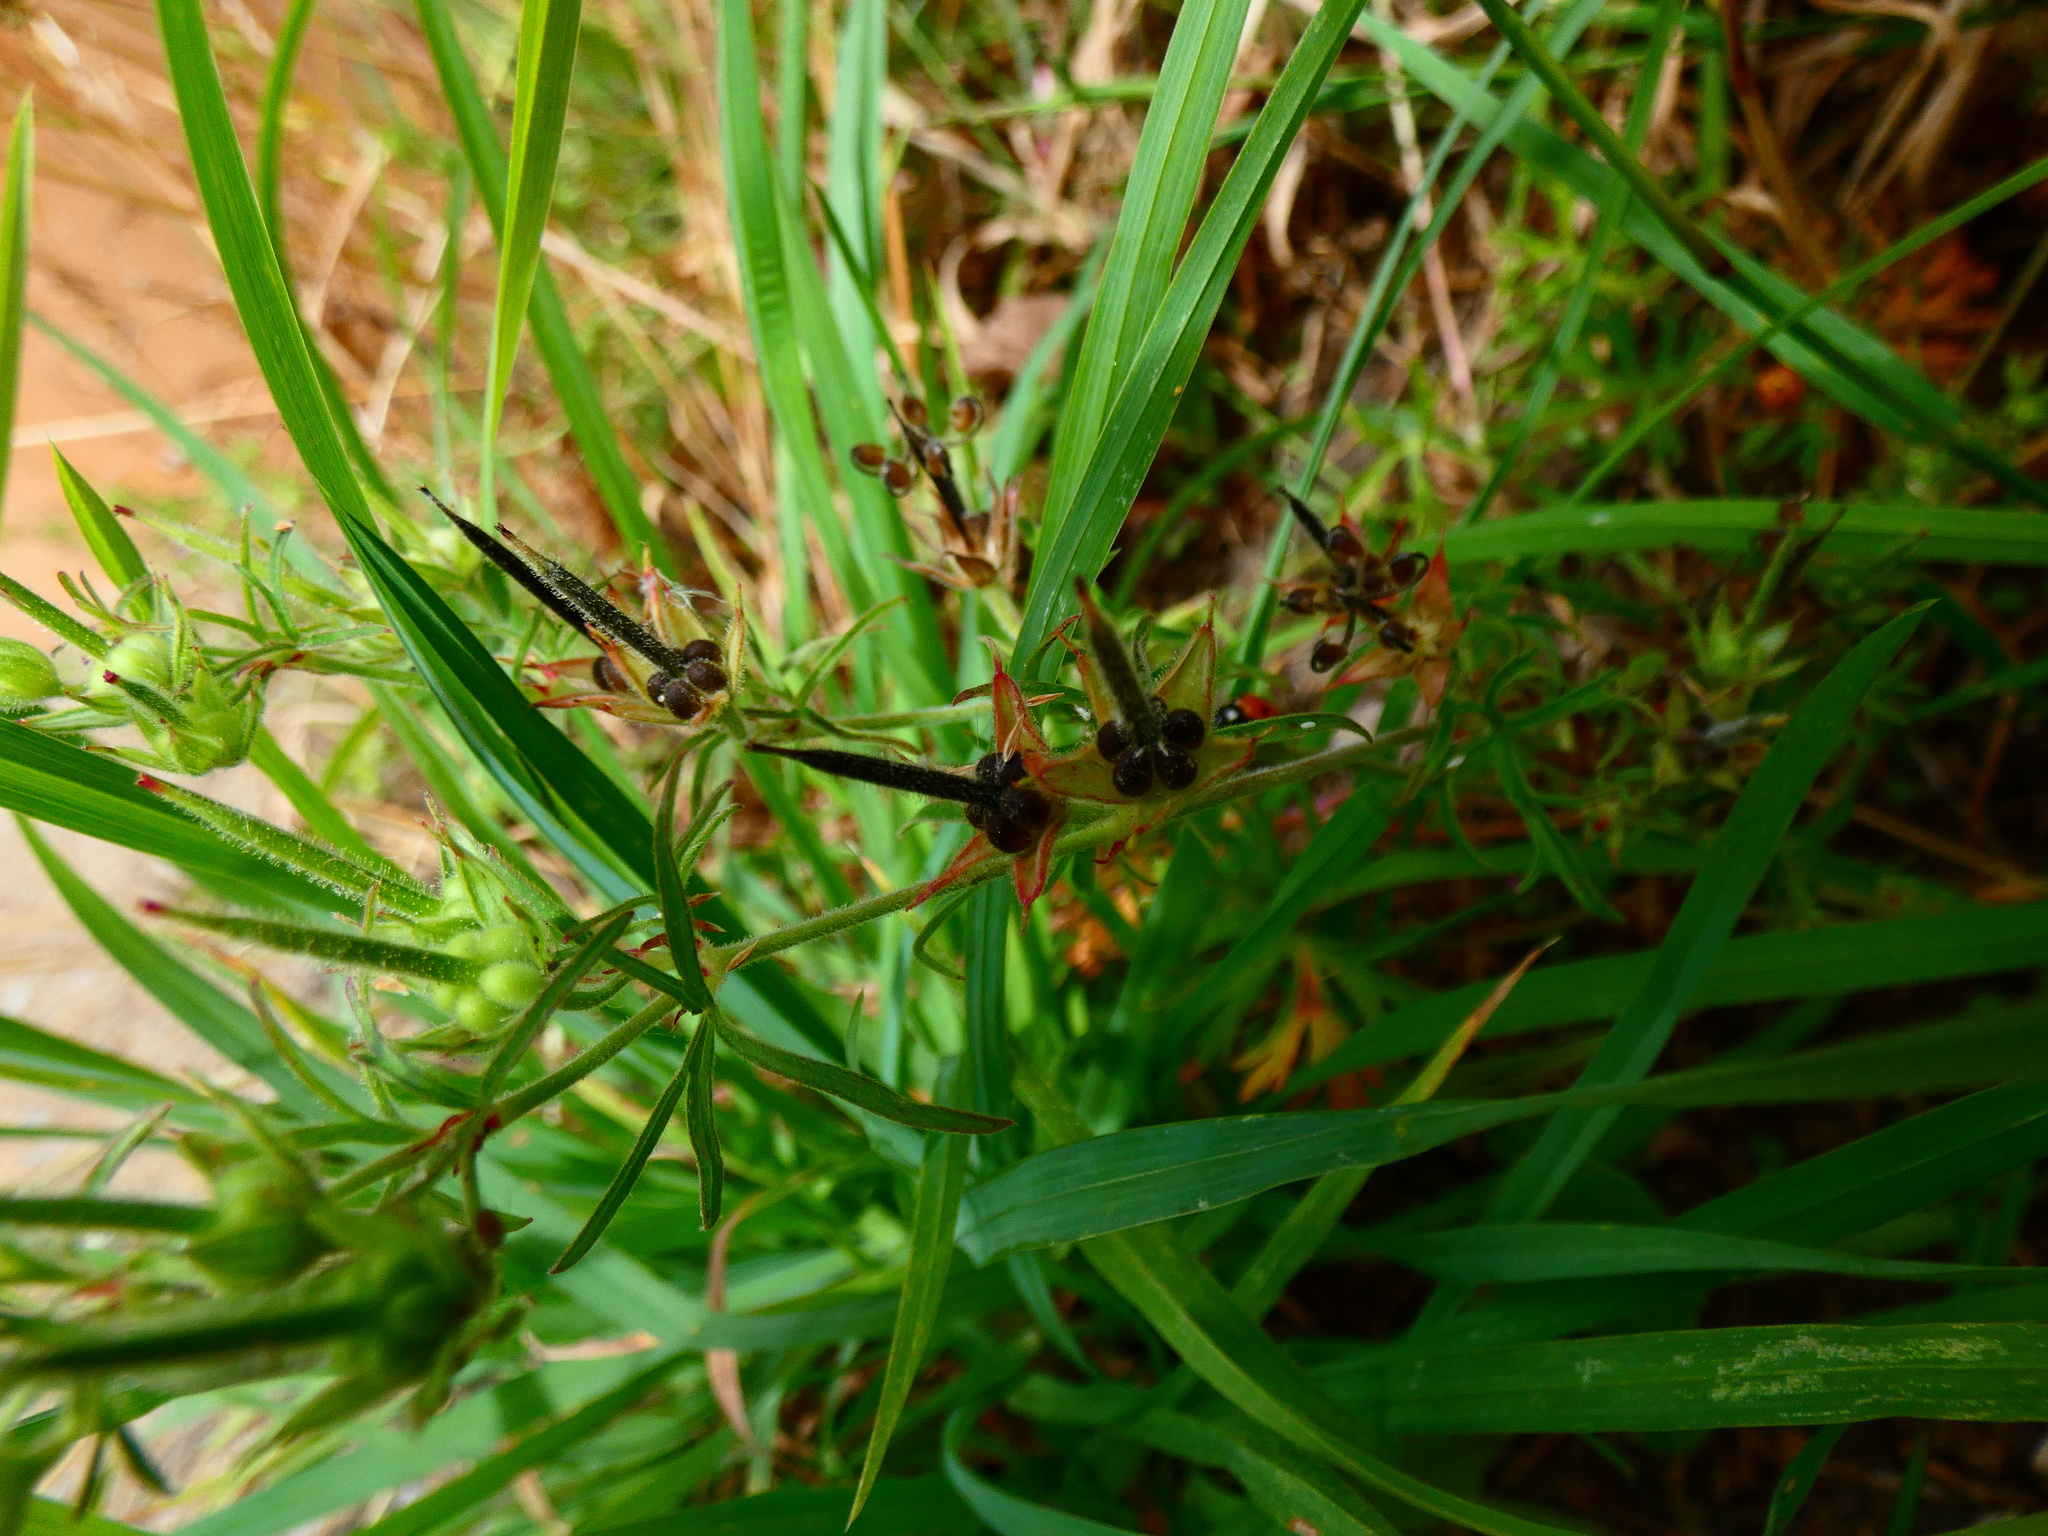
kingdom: Plantae
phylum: Tracheophyta
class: Magnoliopsida
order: Geraniales
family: Geraniaceae
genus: Geranium
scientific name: Geranium dissectum
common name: Cut-leaved crane's-bill
